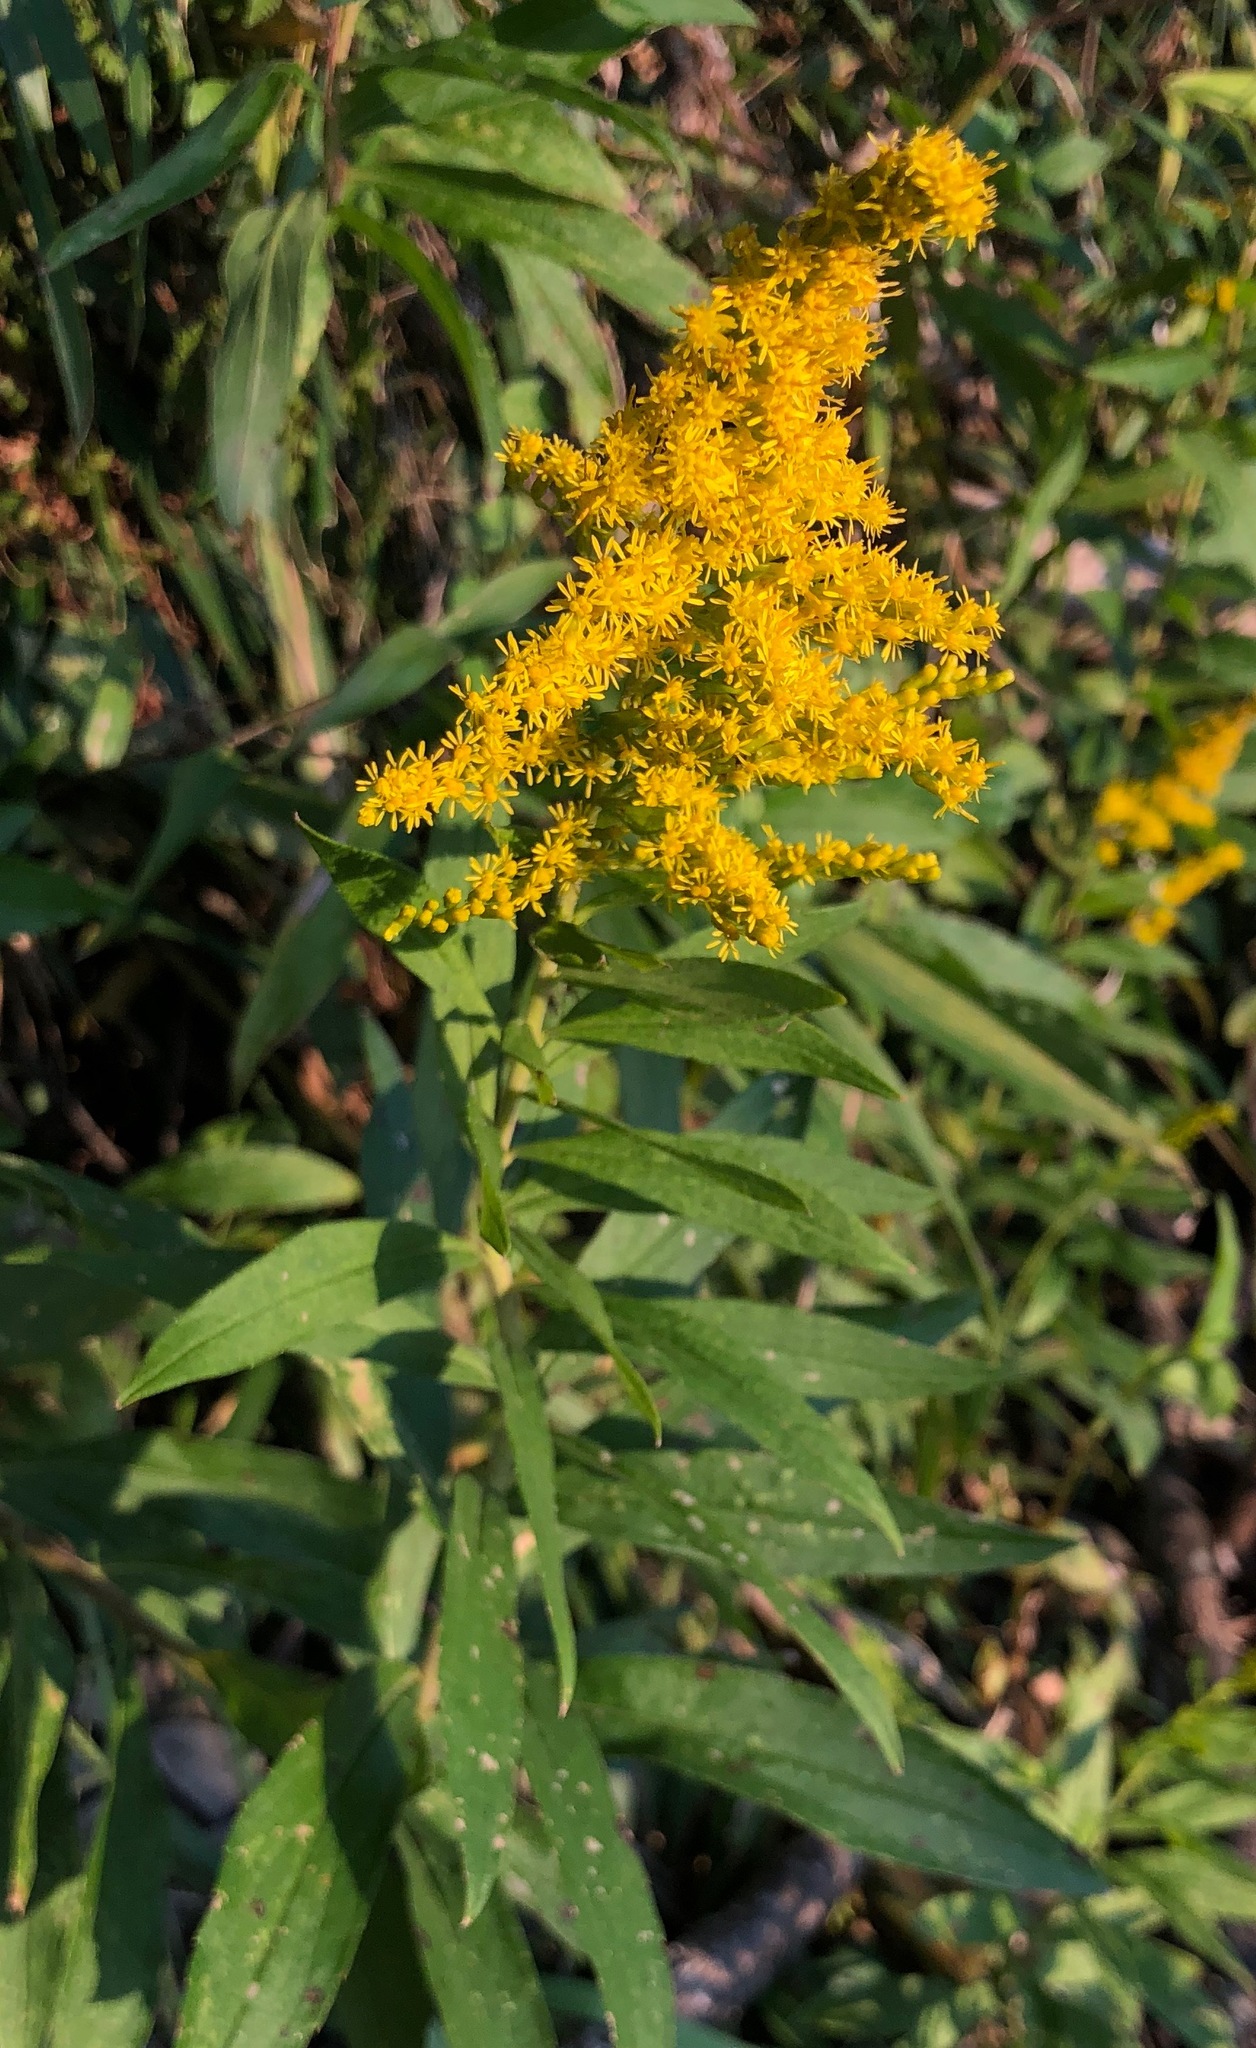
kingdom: Plantae
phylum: Tracheophyta
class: Magnoliopsida
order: Asterales
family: Asteraceae
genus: Solidago
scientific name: Solidago altissima
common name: Late goldenrod
